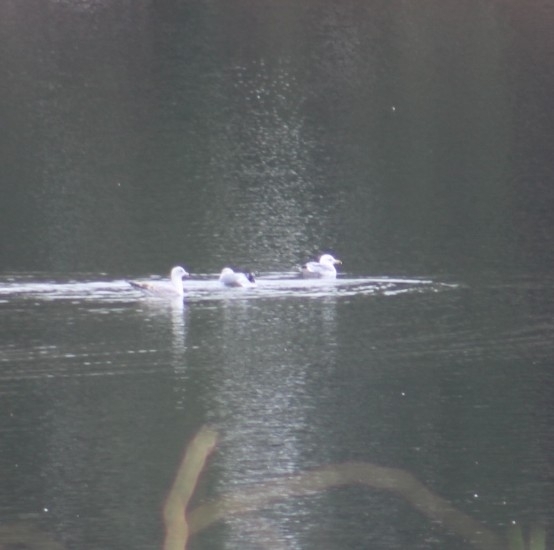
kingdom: Animalia
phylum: Chordata
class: Aves
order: Charadriiformes
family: Laridae
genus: Larus
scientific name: Larus delawarensis
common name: Ring-billed gull
